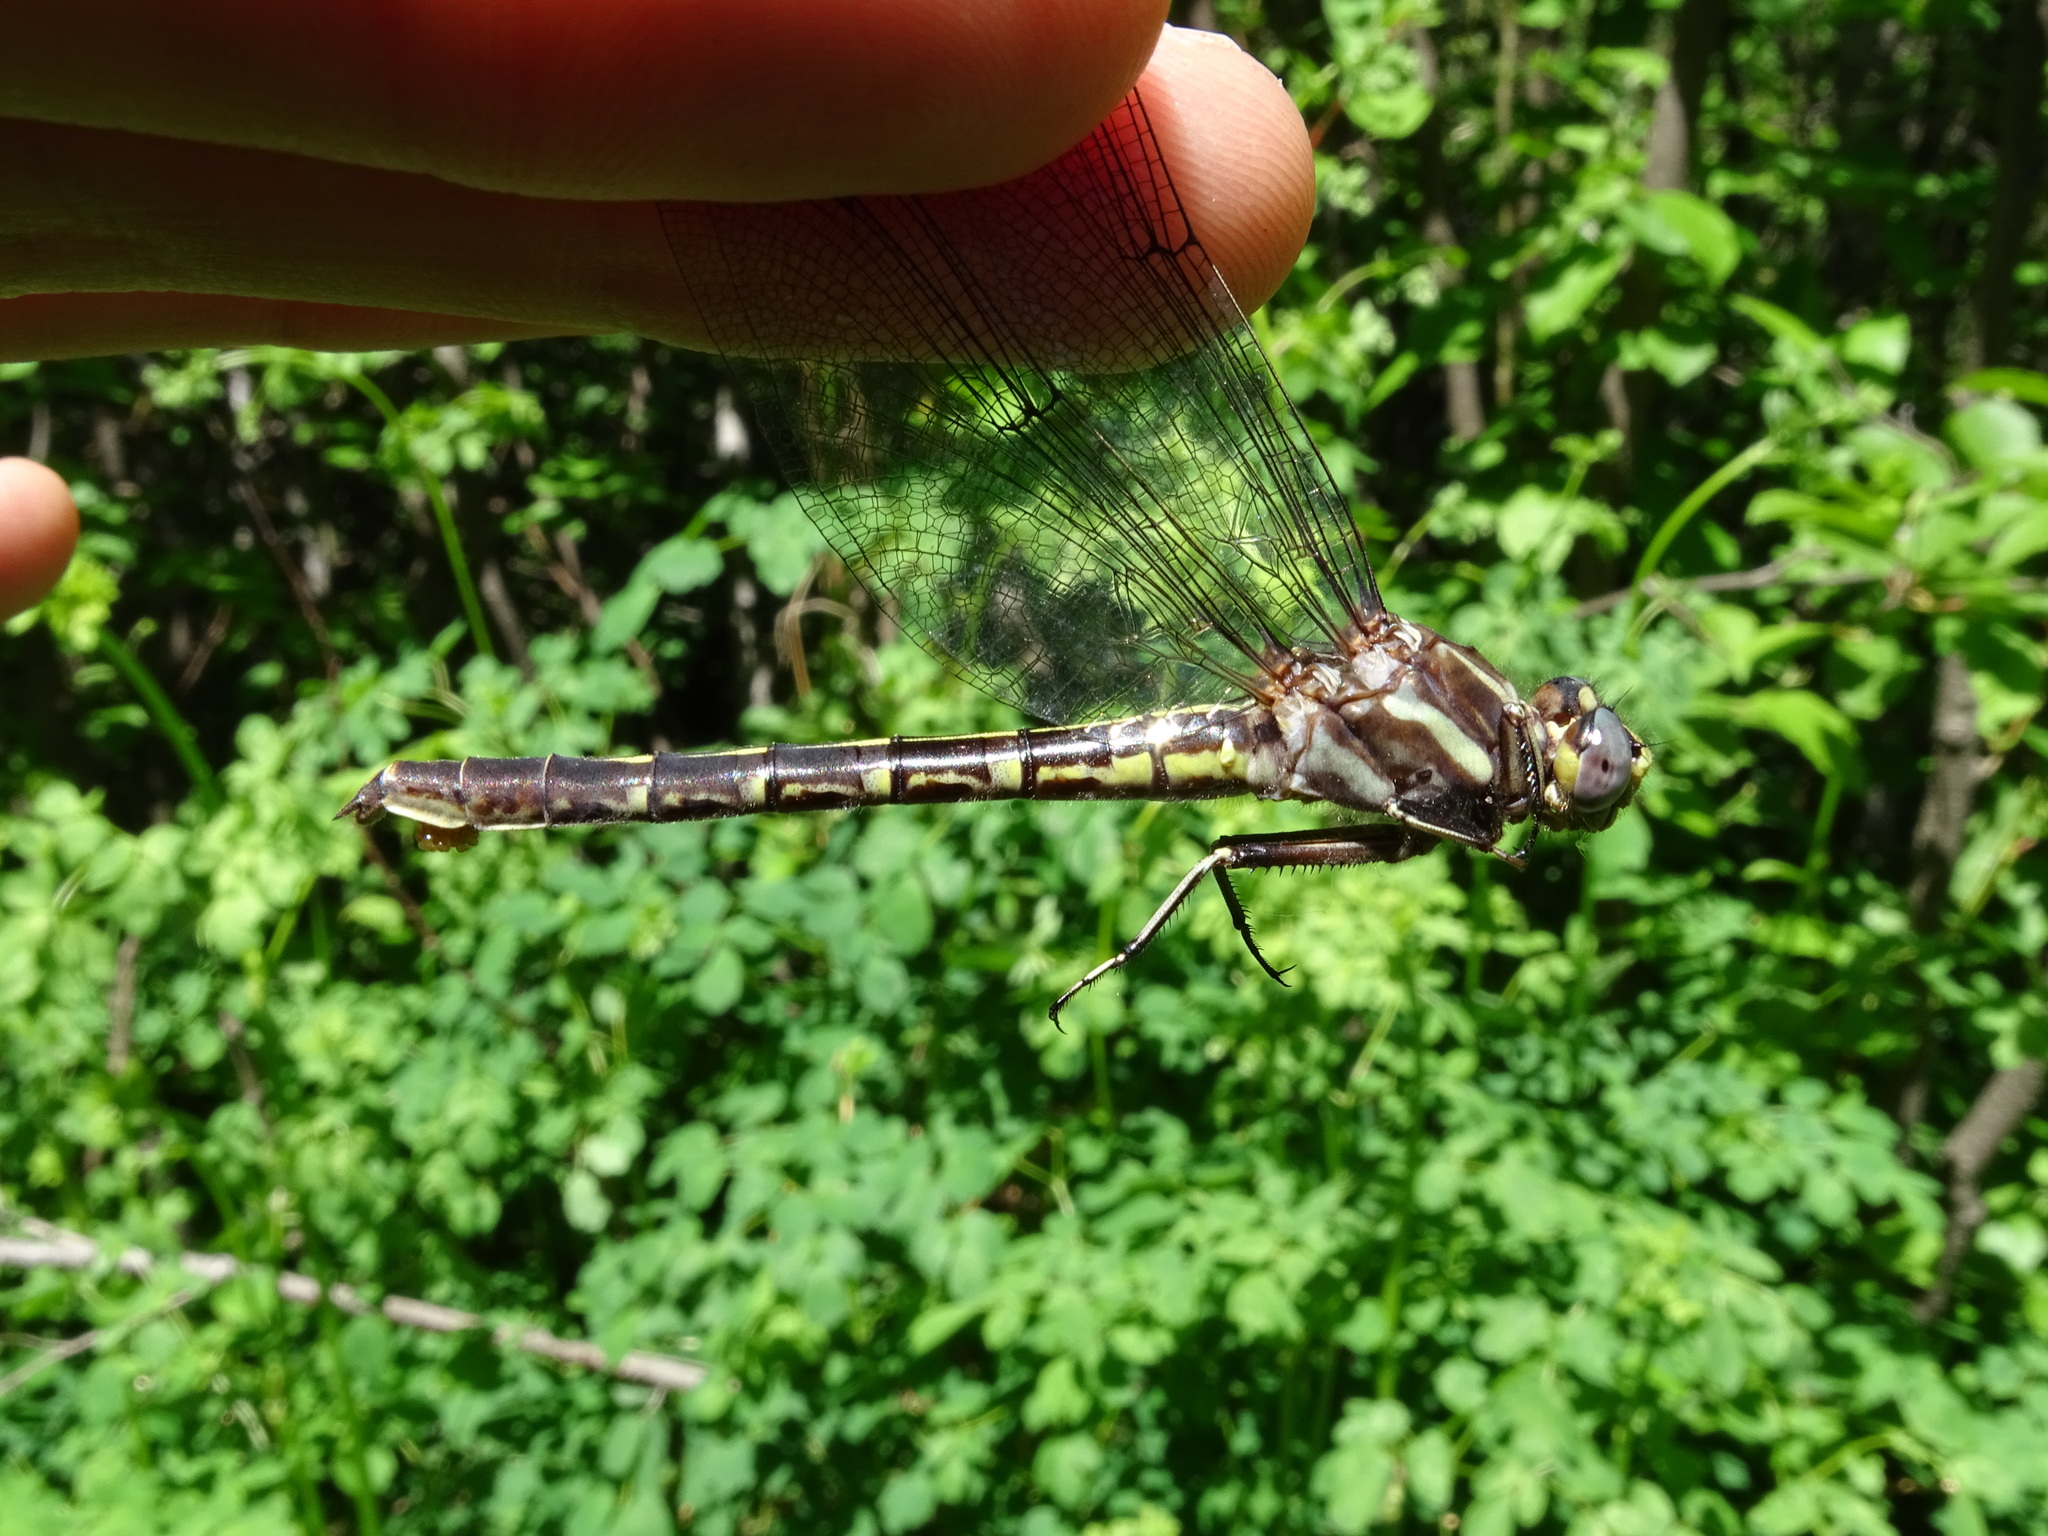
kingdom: Animalia
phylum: Arthropoda
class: Insecta
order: Odonata
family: Gomphidae
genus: Phanogomphus
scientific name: Phanogomphus lividus
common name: Ashy clubtail
